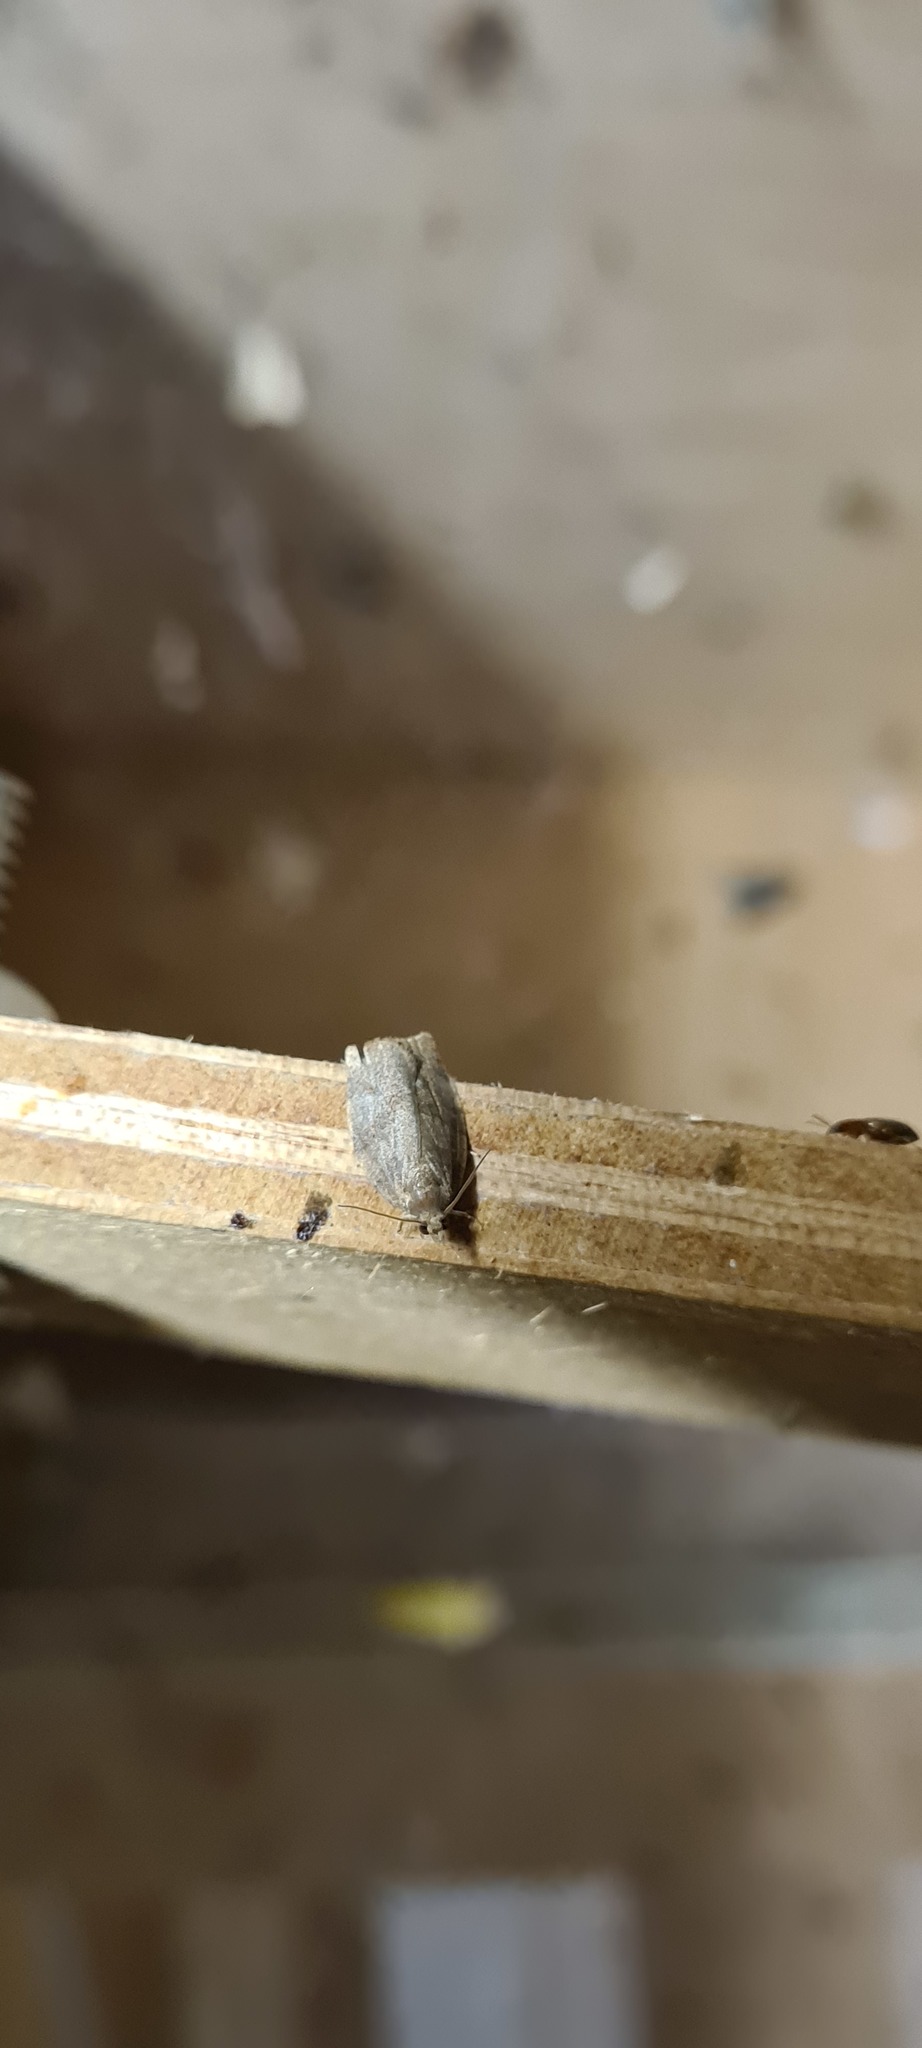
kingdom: Animalia
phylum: Arthropoda
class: Insecta
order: Lepidoptera
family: Tortricidae
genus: Pandemis
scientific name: Pandemis heparana
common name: Dark fruit-tree tortrix
